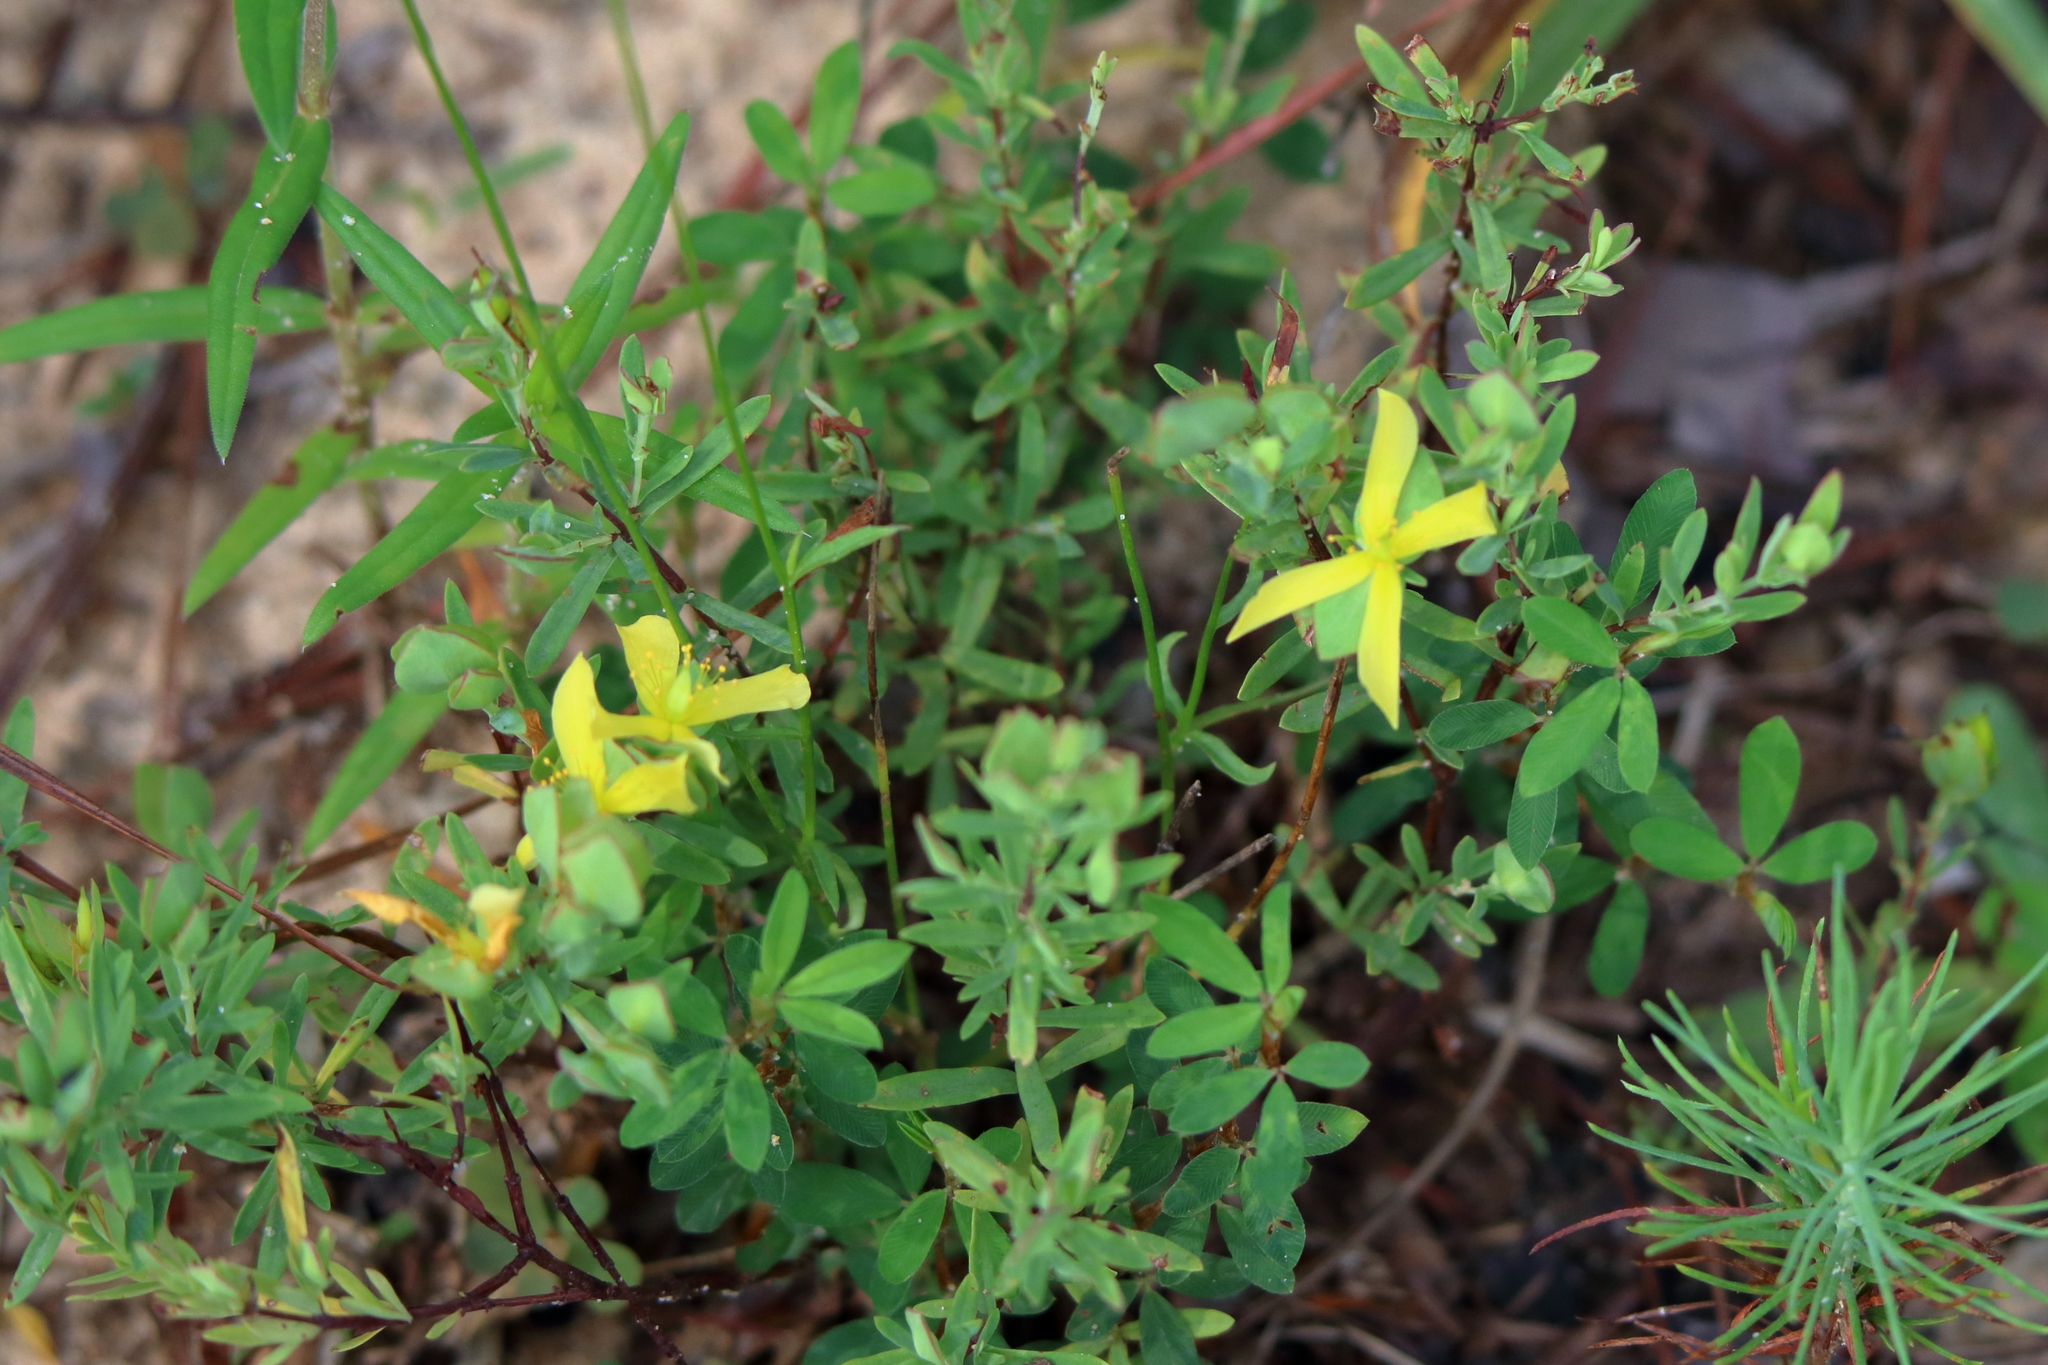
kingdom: Plantae
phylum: Tracheophyta
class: Magnoliopsida
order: Malpighiales
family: Hypericaceae
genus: Hypericum
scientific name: Hypericum hypericoides
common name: St. andrew's cross
